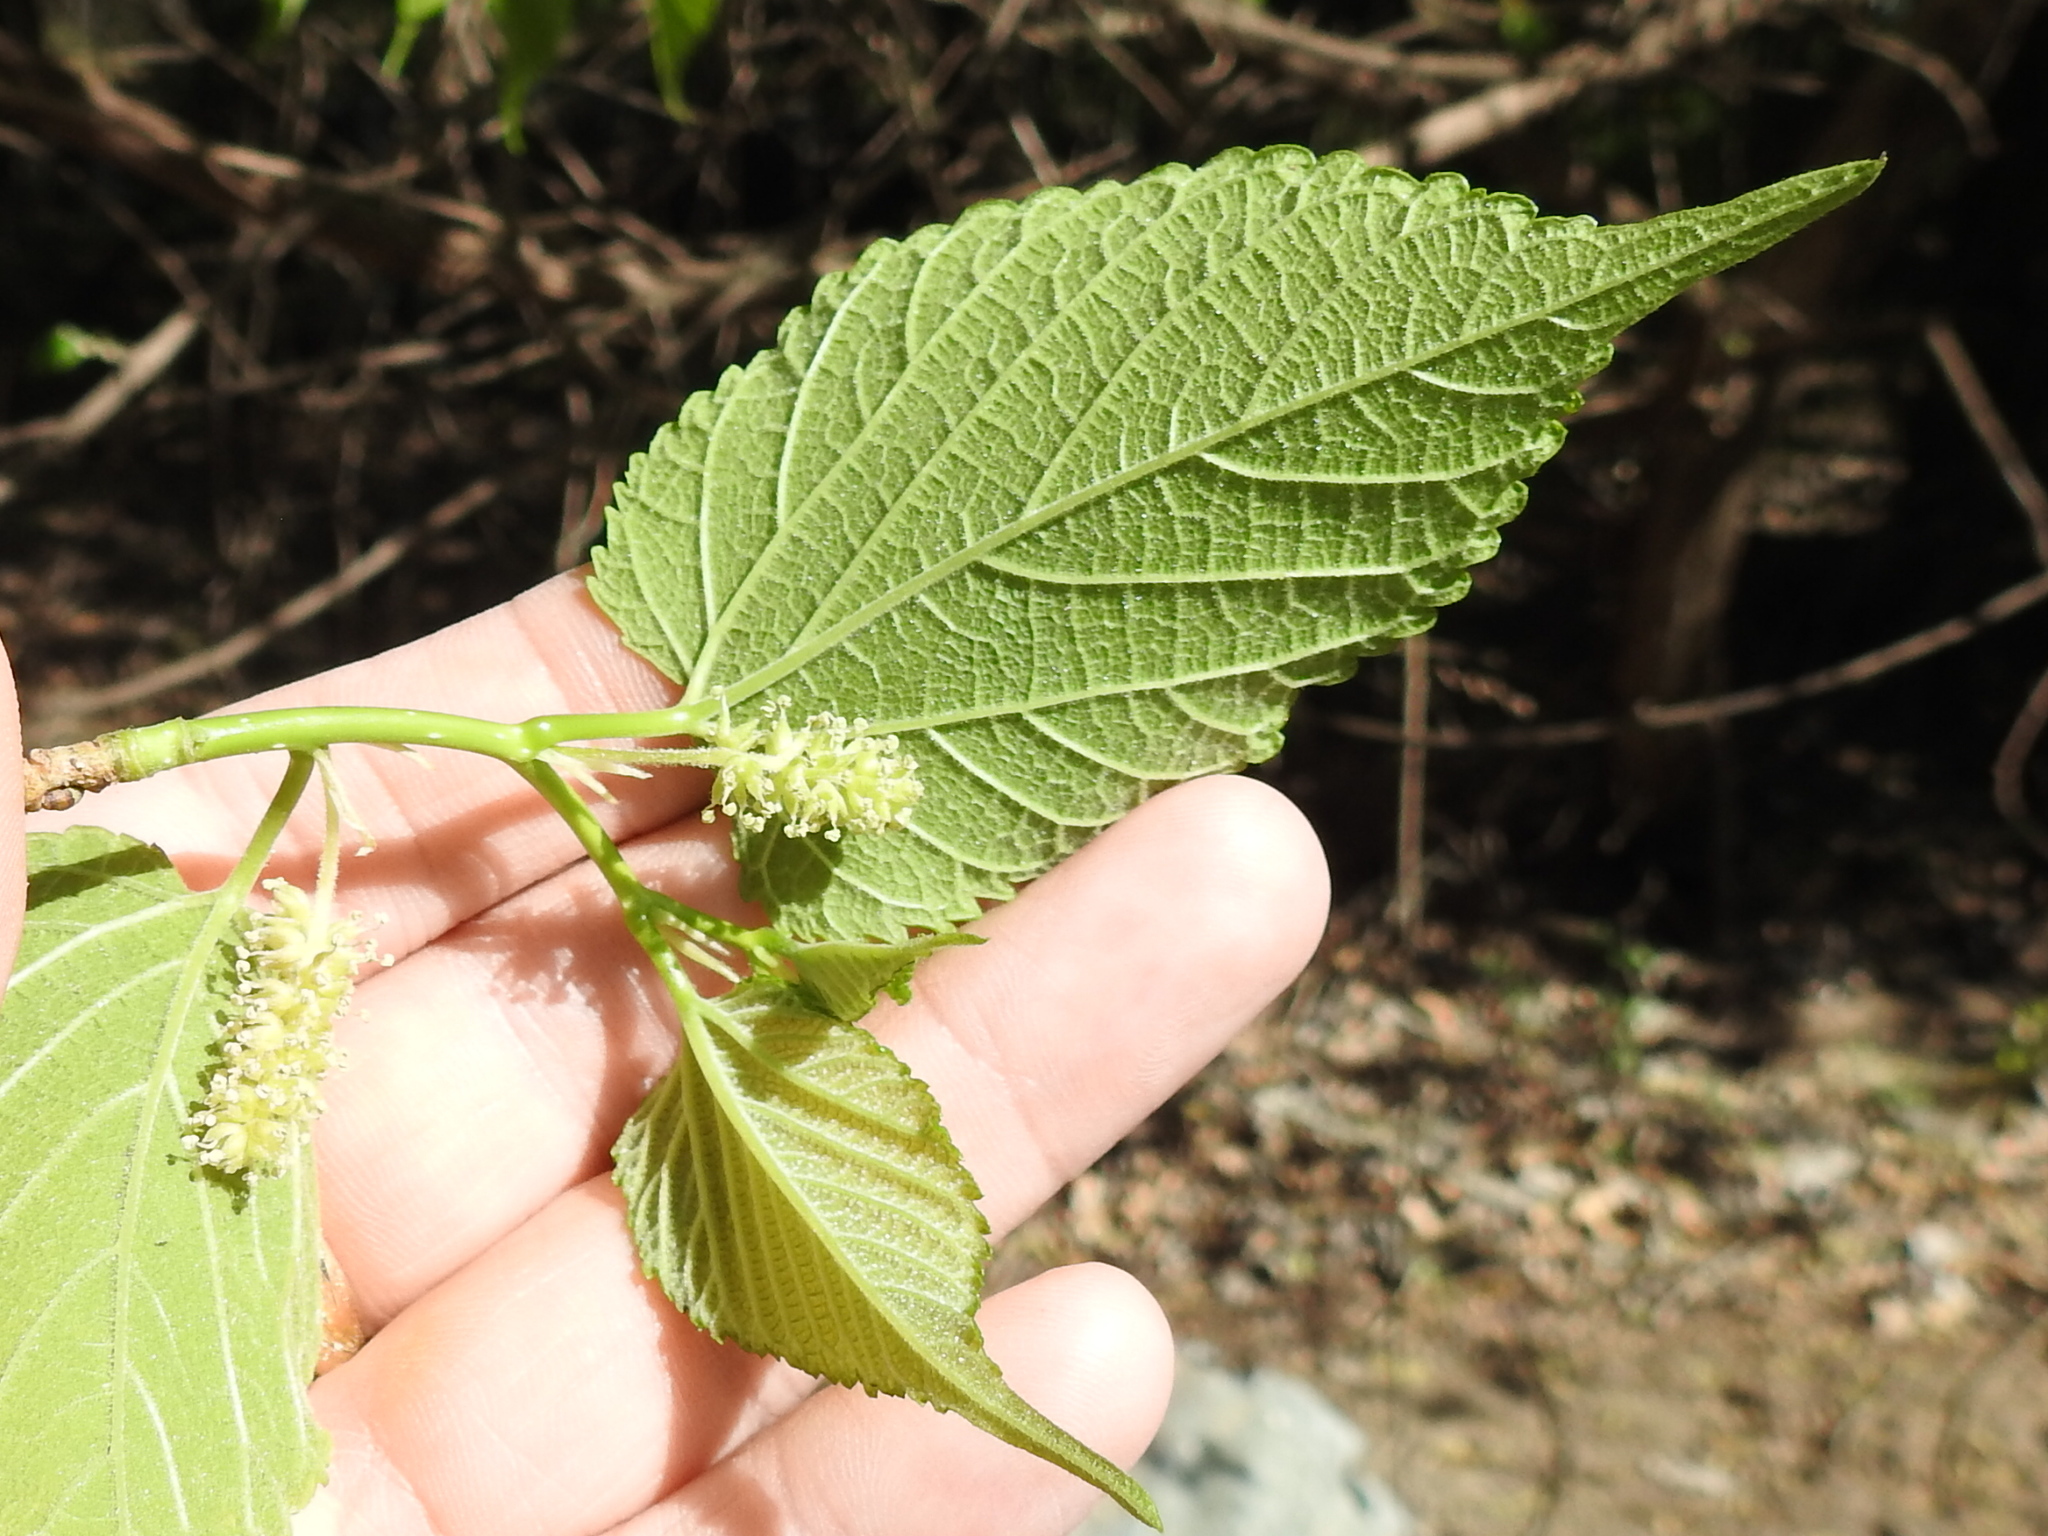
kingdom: Plantae
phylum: Tracheophyta
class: Magnoliopsida
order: Rosales
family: Moraceae
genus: Morus
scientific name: Morus rubra
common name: Red mulberry
